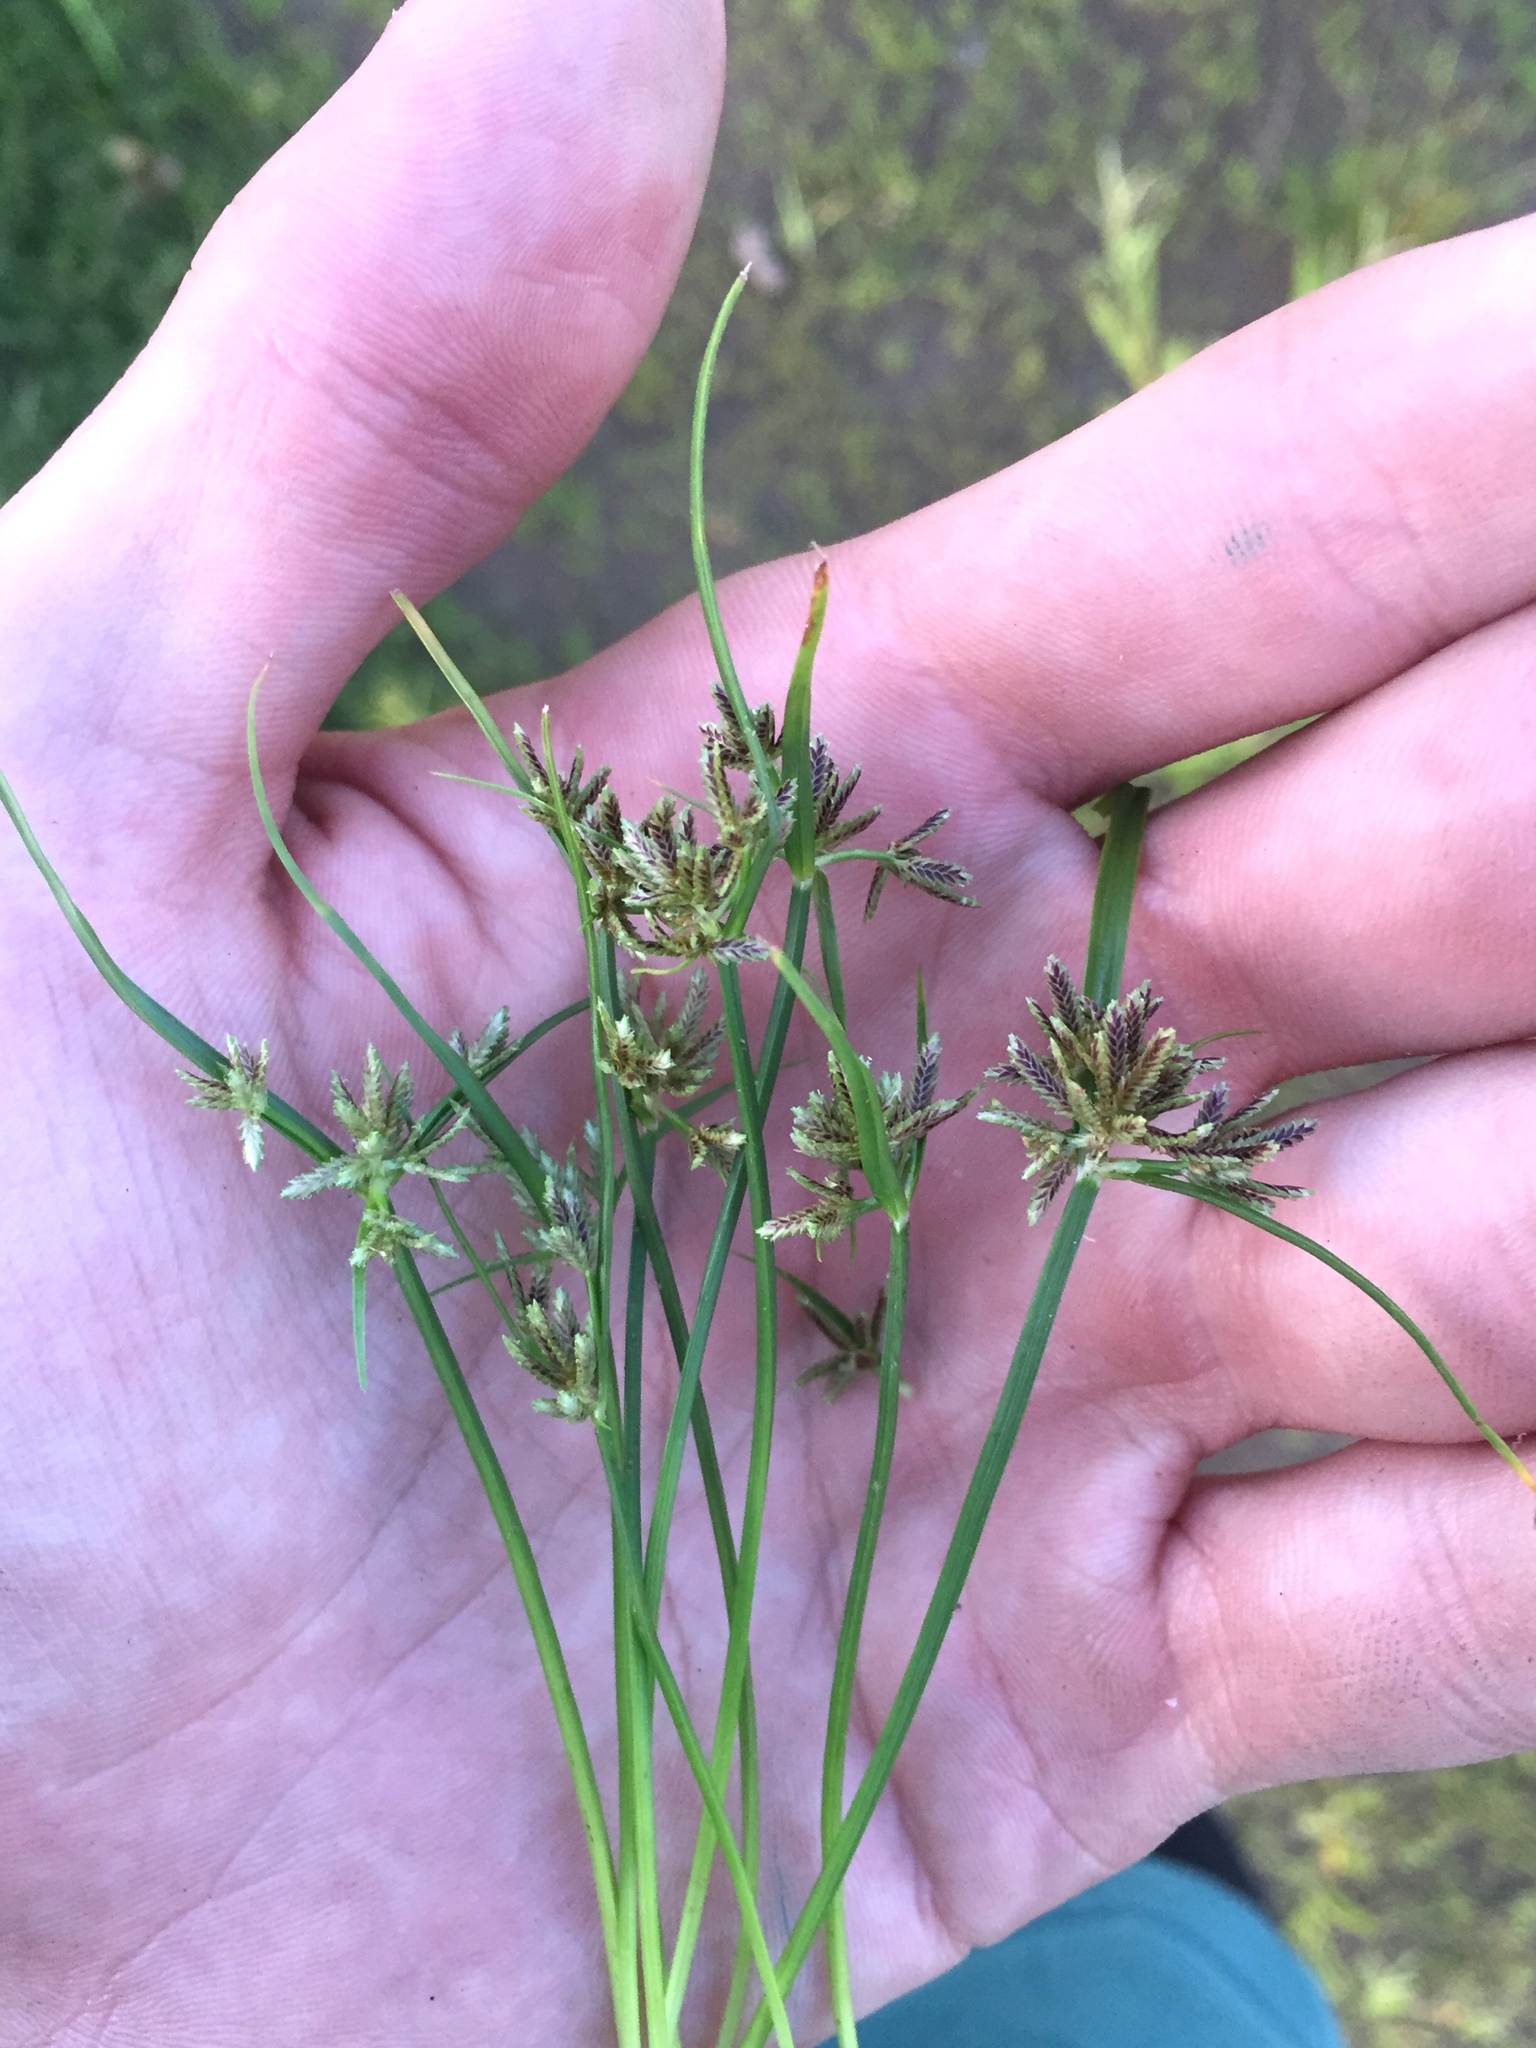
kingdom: Plantae
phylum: Tracheophyta
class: Liliopsida
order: Poales
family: Cyperaceae
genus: Cyperus
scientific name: Cyperus fuscus
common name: Brown galingale
